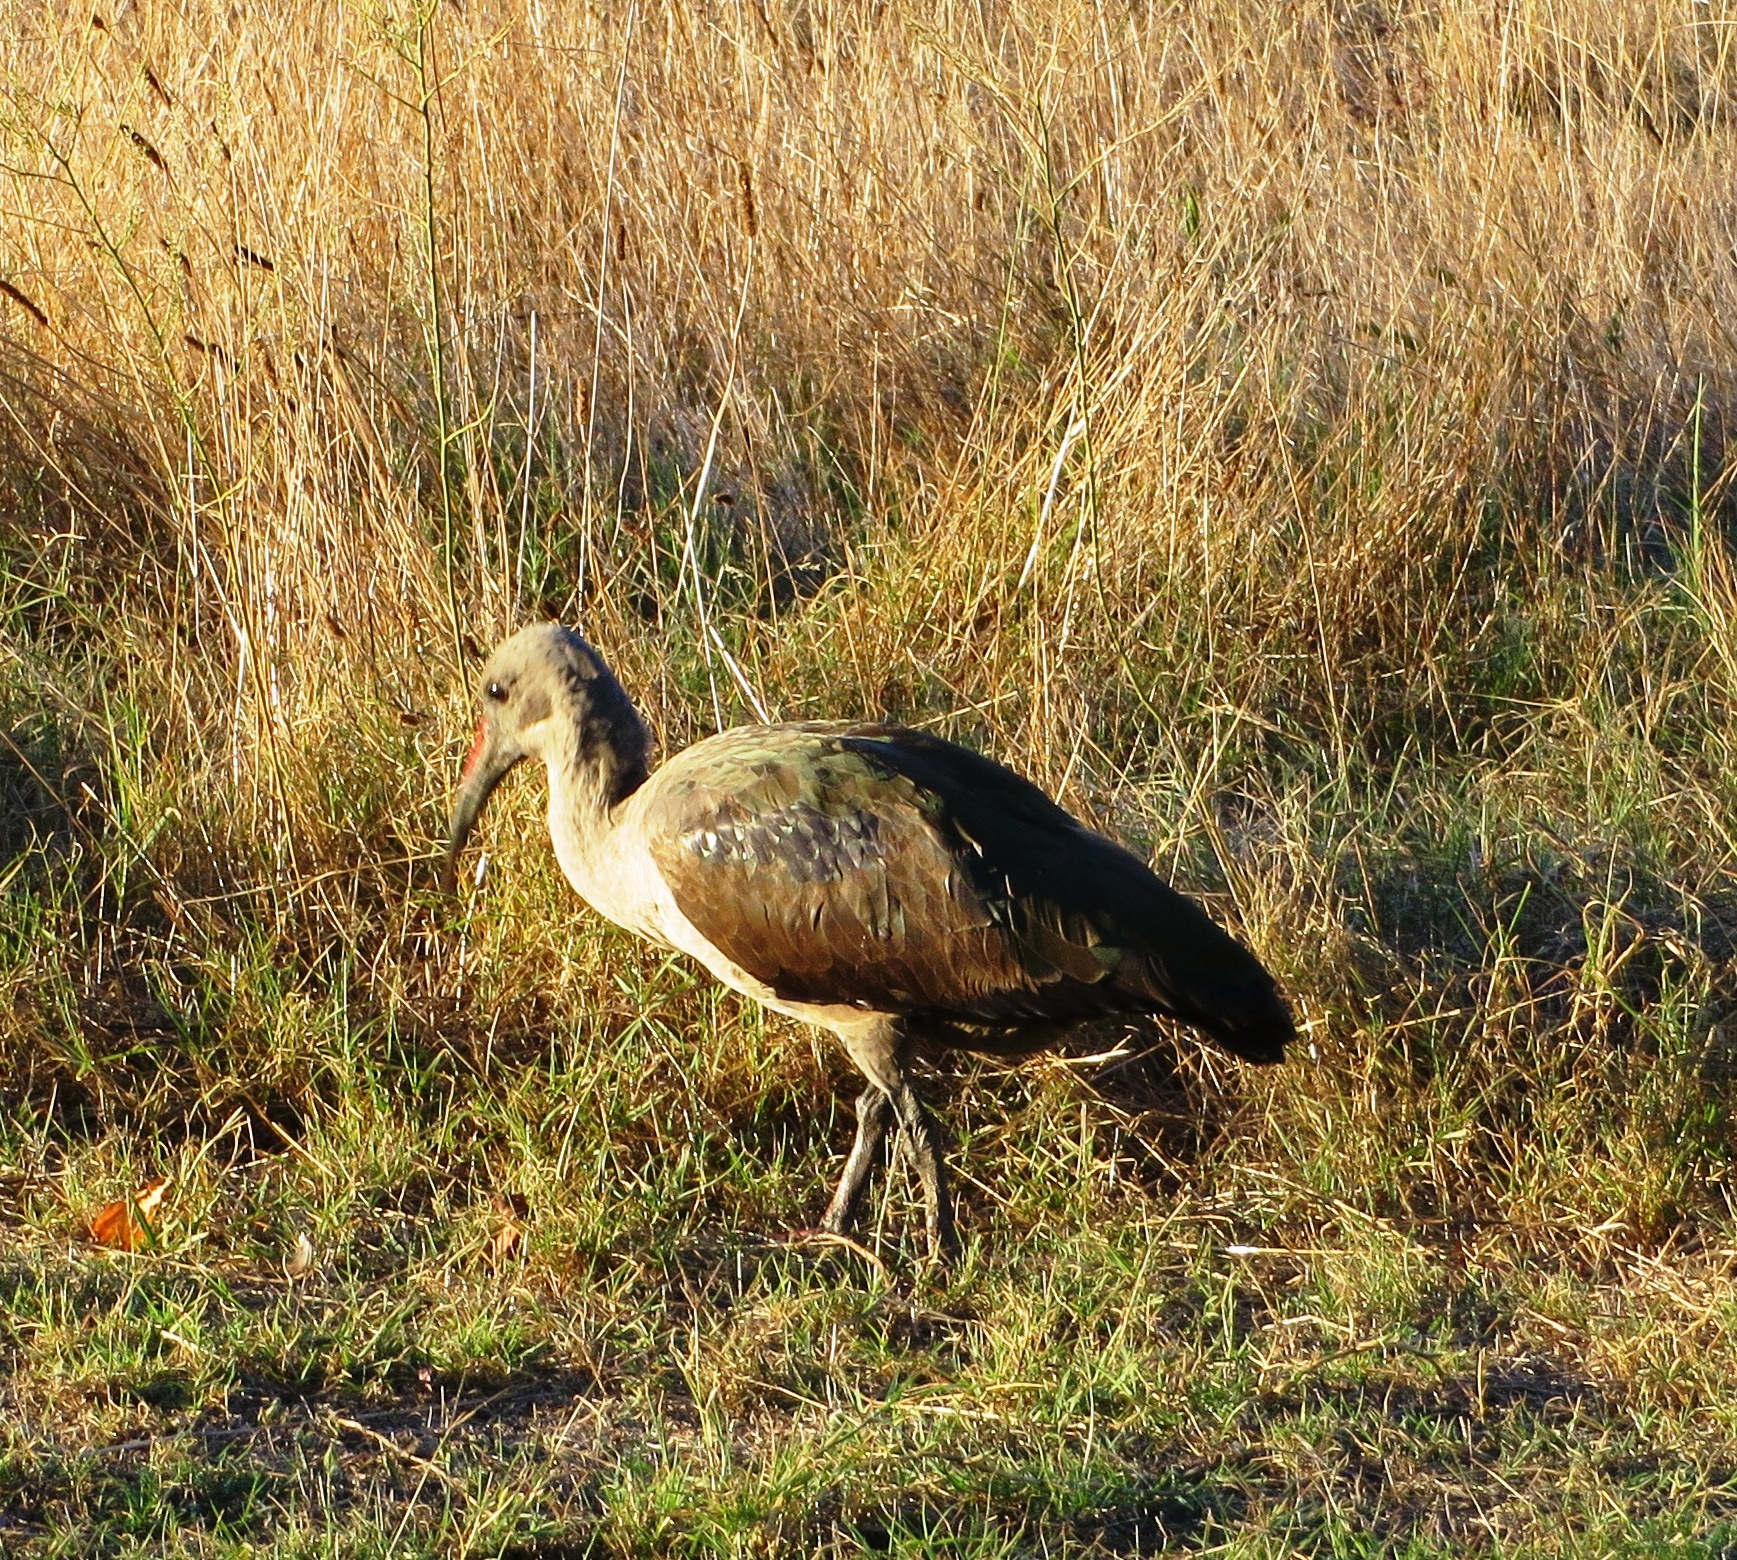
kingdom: Animalia
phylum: Chordata
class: Aves
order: Pelecaniformes
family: Threskiornithidae
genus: Bostrychia
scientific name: Bostrychia hagedash
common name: Hadada ibis
